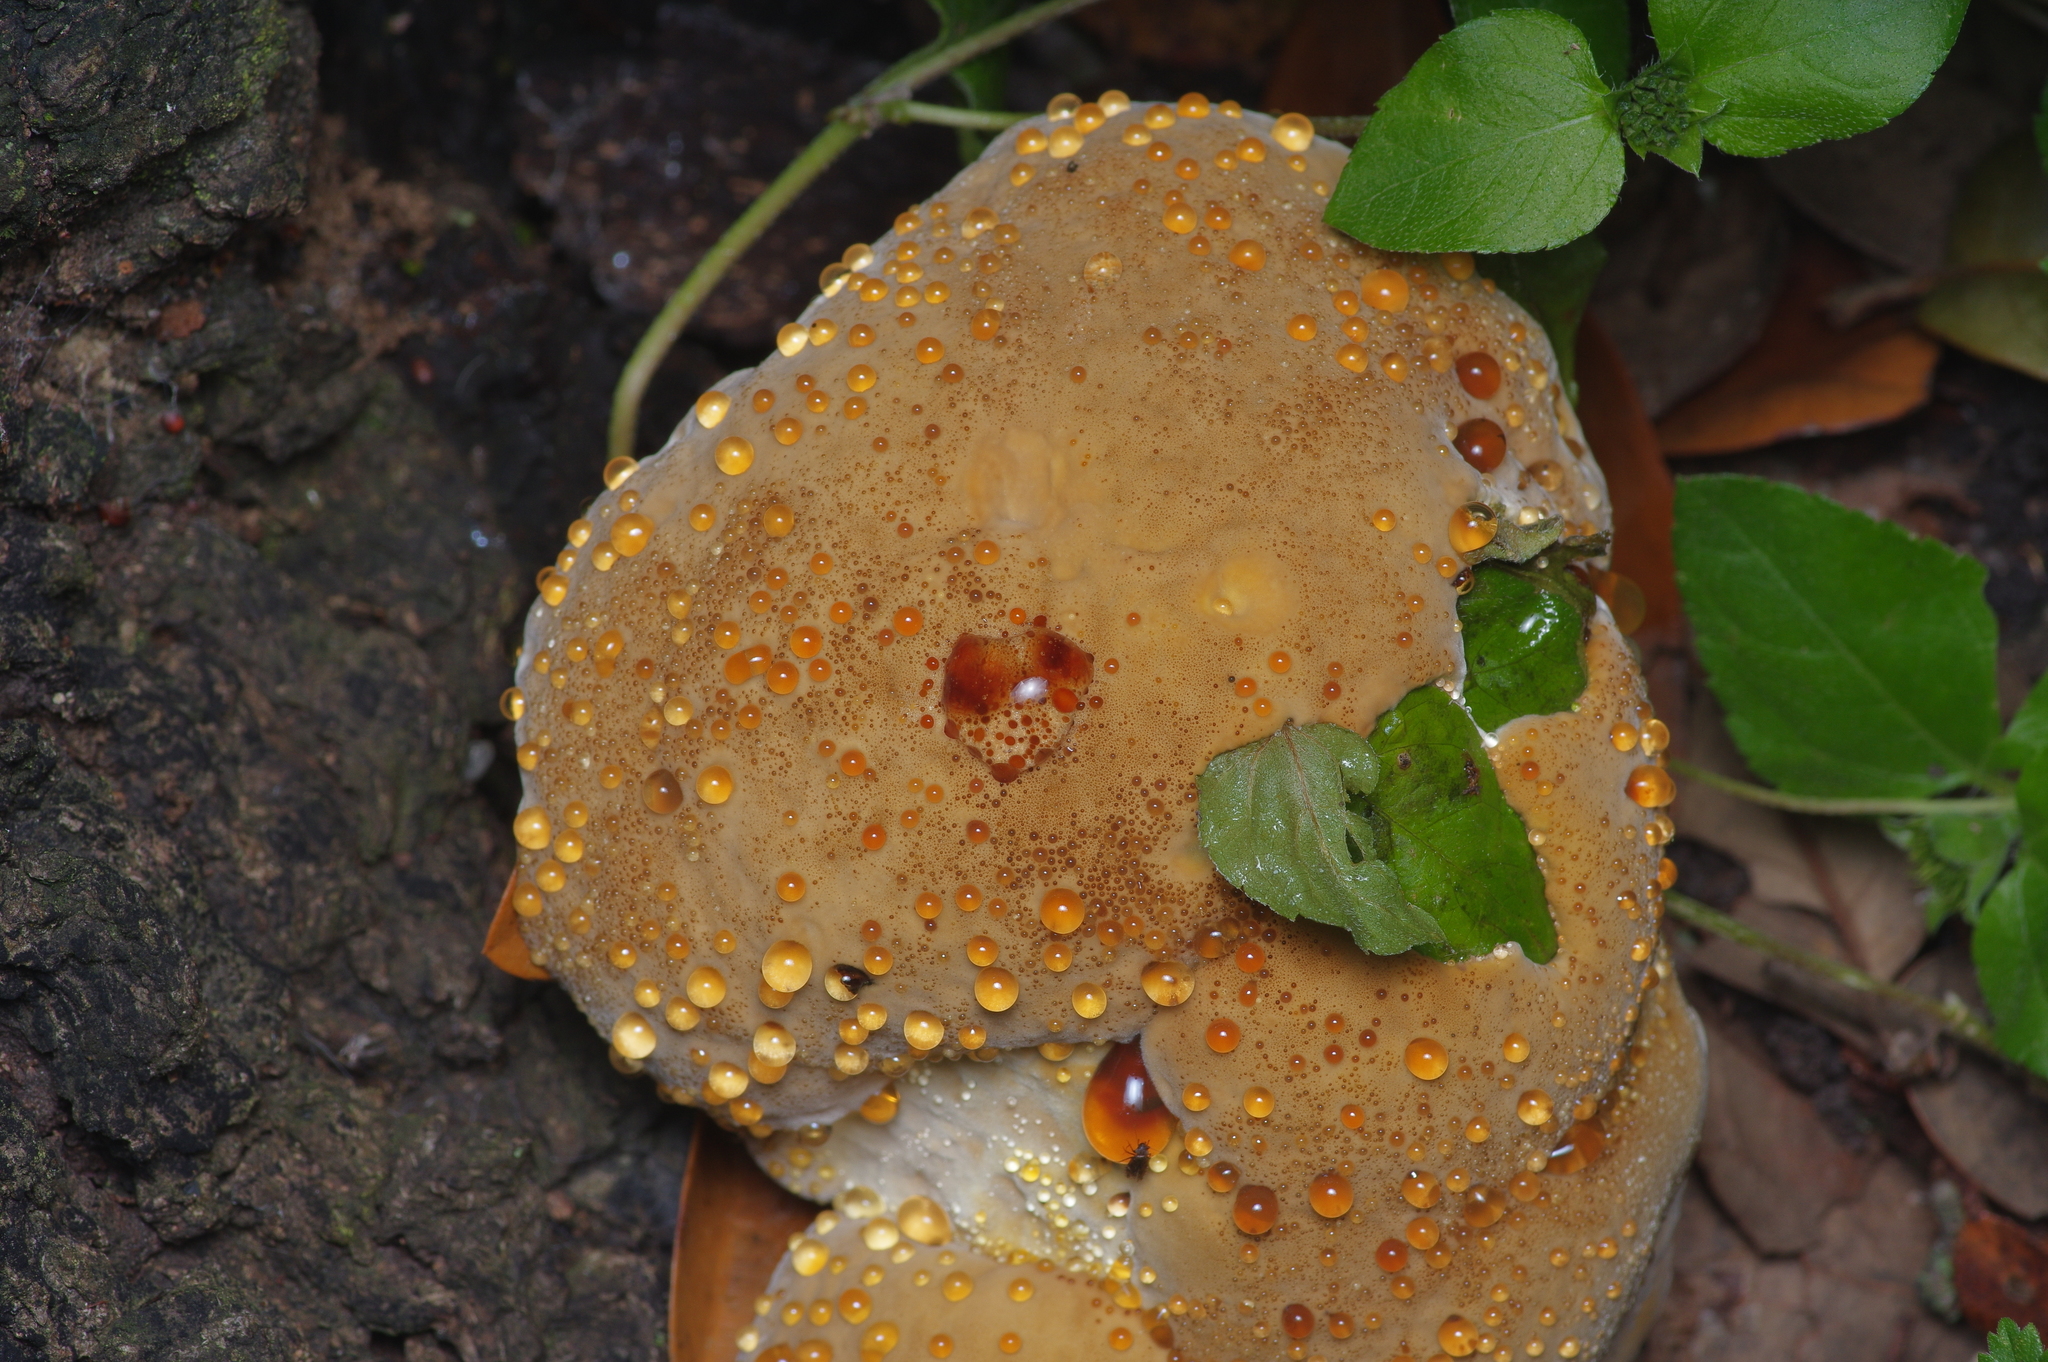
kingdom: Fungi
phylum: Basidiomycota
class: Agaricomycetes
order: Hymenochaetales
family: Hymenochaetaceae
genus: Pseudoinonotus
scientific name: Pseudoinonotus dryadeus
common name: Oak bracket
